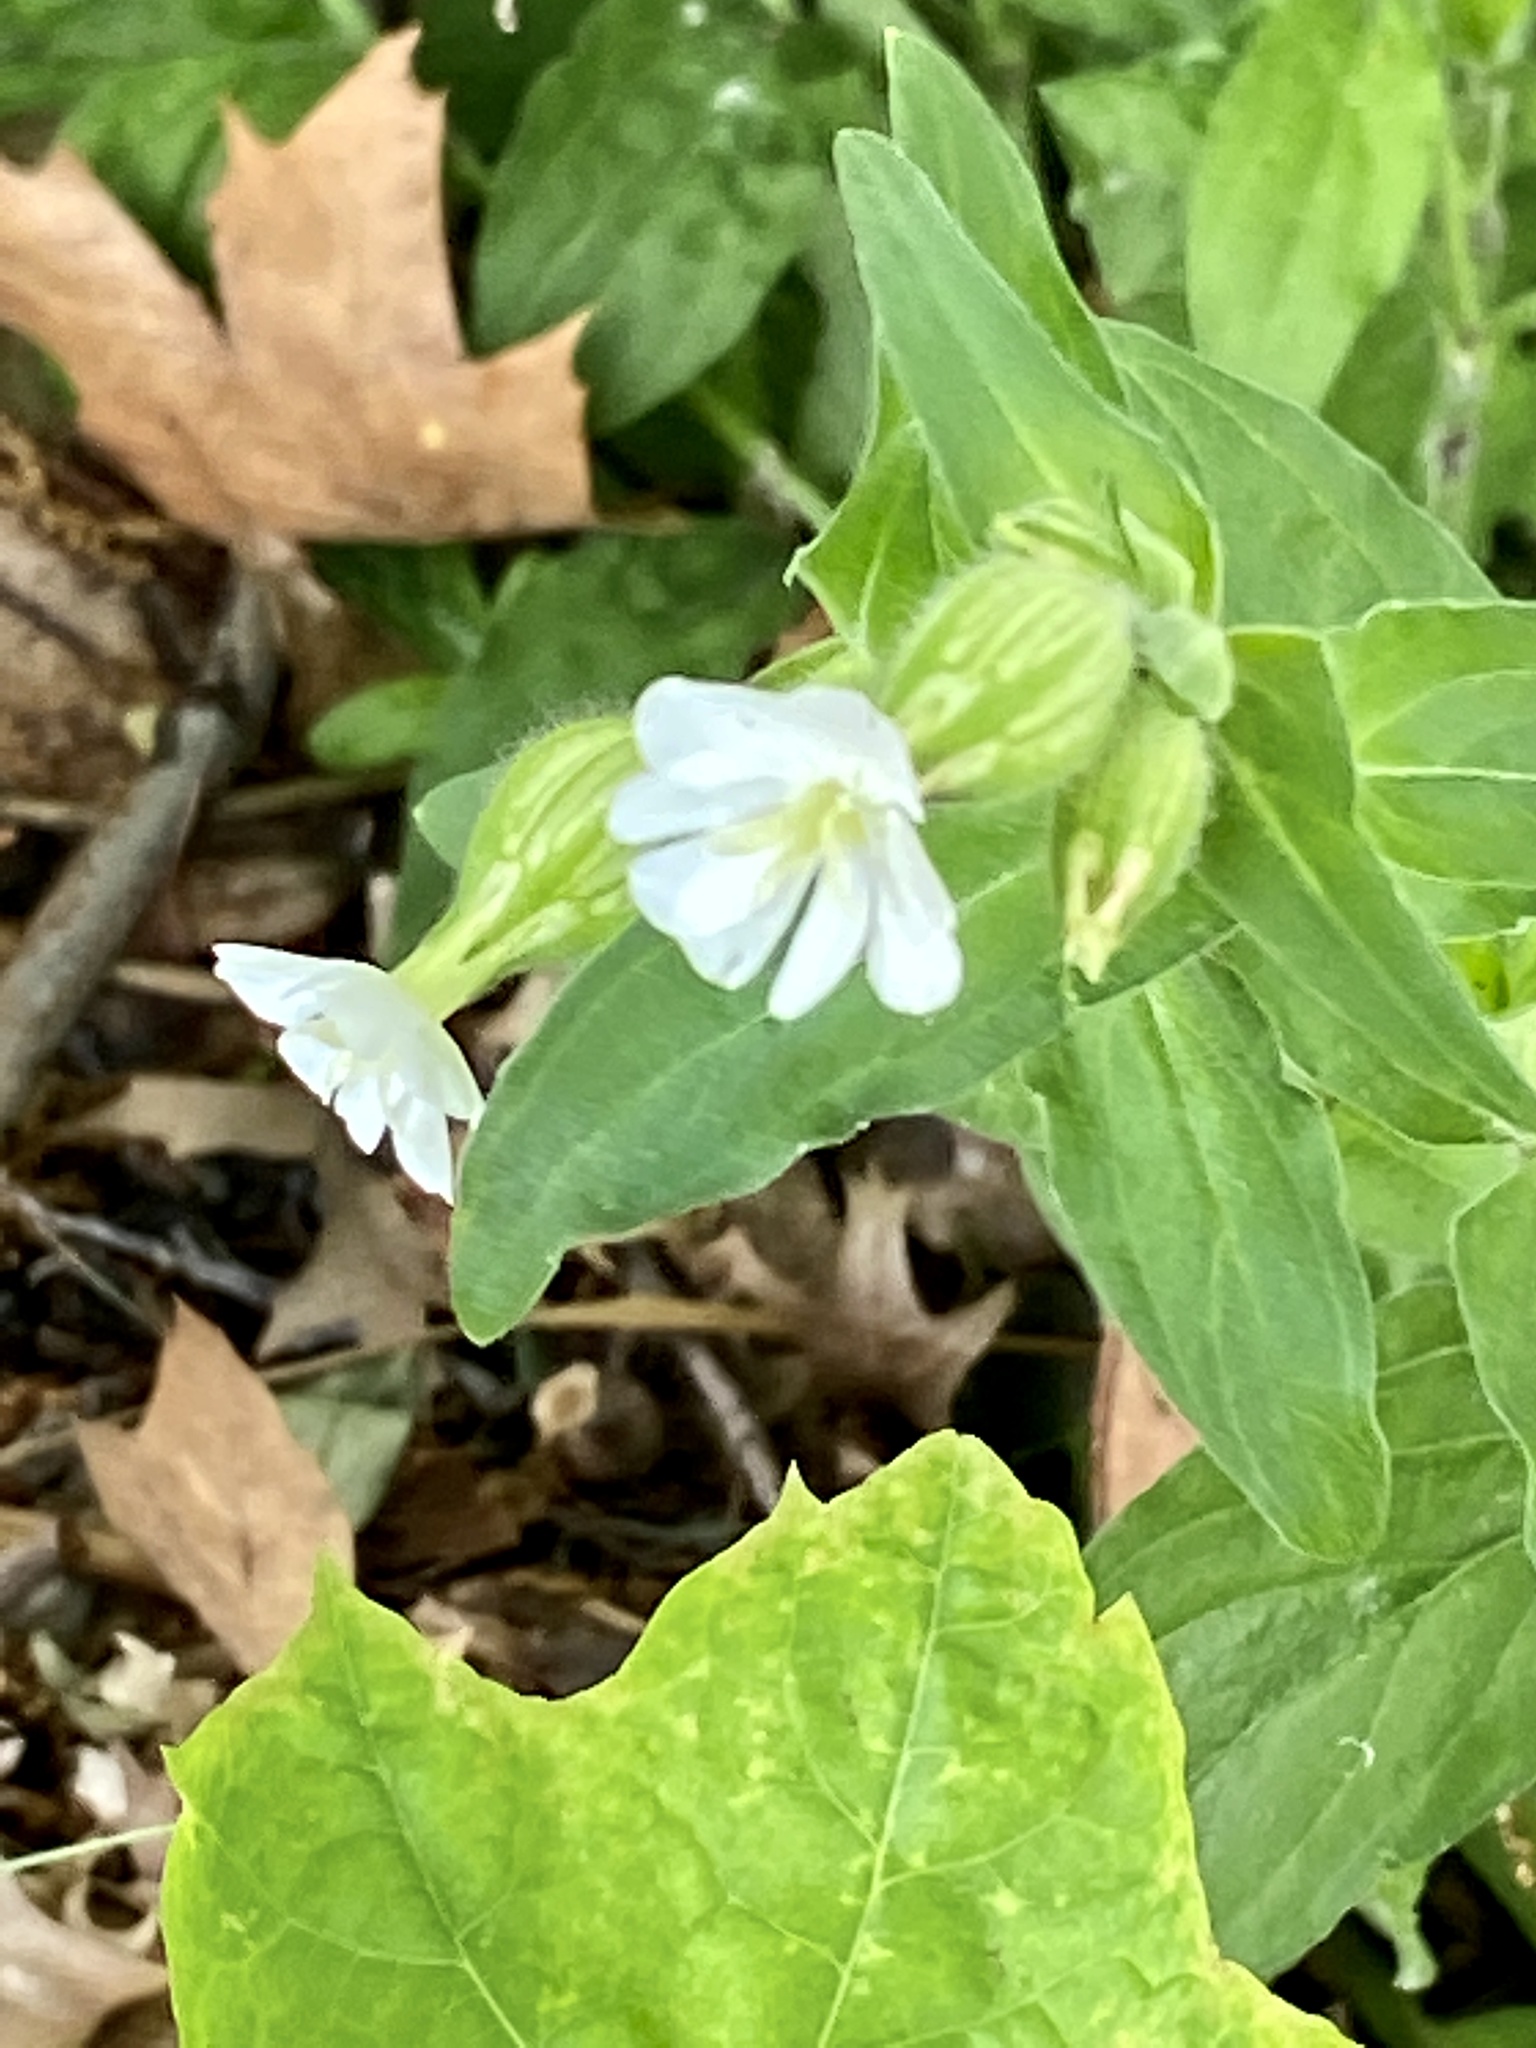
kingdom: Plantae
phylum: Tracheophyta
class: Magnoliopsida
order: Caryophyllales
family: Caryophyllaceae
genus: Silene
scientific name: Silene latifolia
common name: White campion
